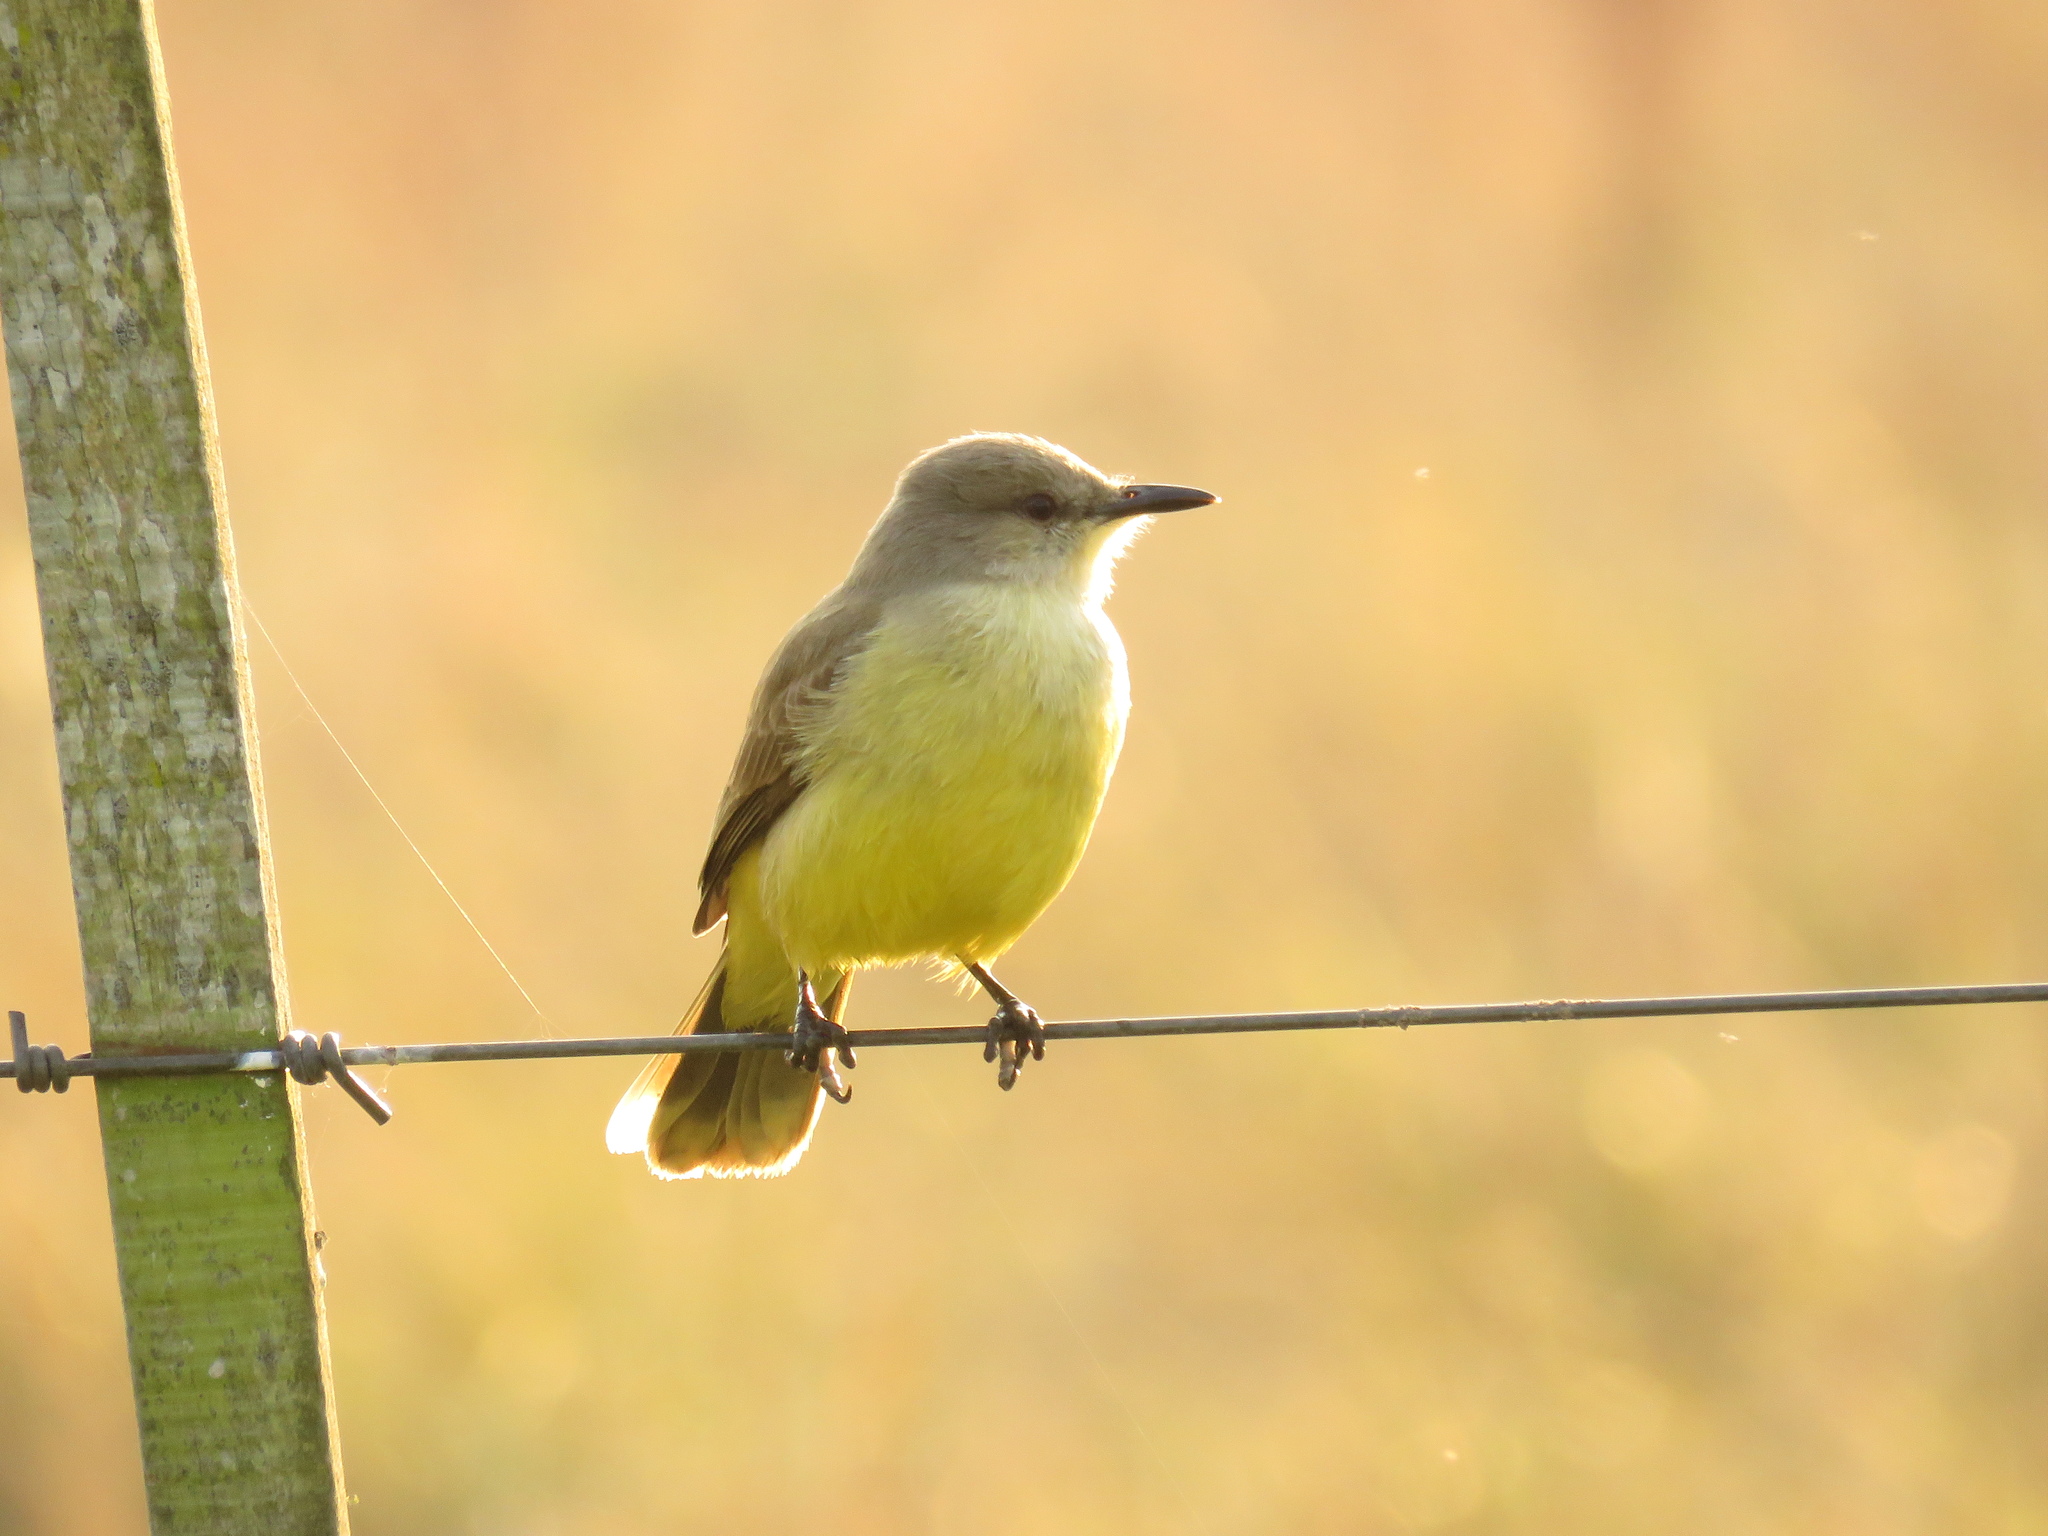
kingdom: Animalia
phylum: Chordata
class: Aves
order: Passeriformes
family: Tyrannidae
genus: Machetornis
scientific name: Machetornis rixosa
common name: Cattle tyrant
